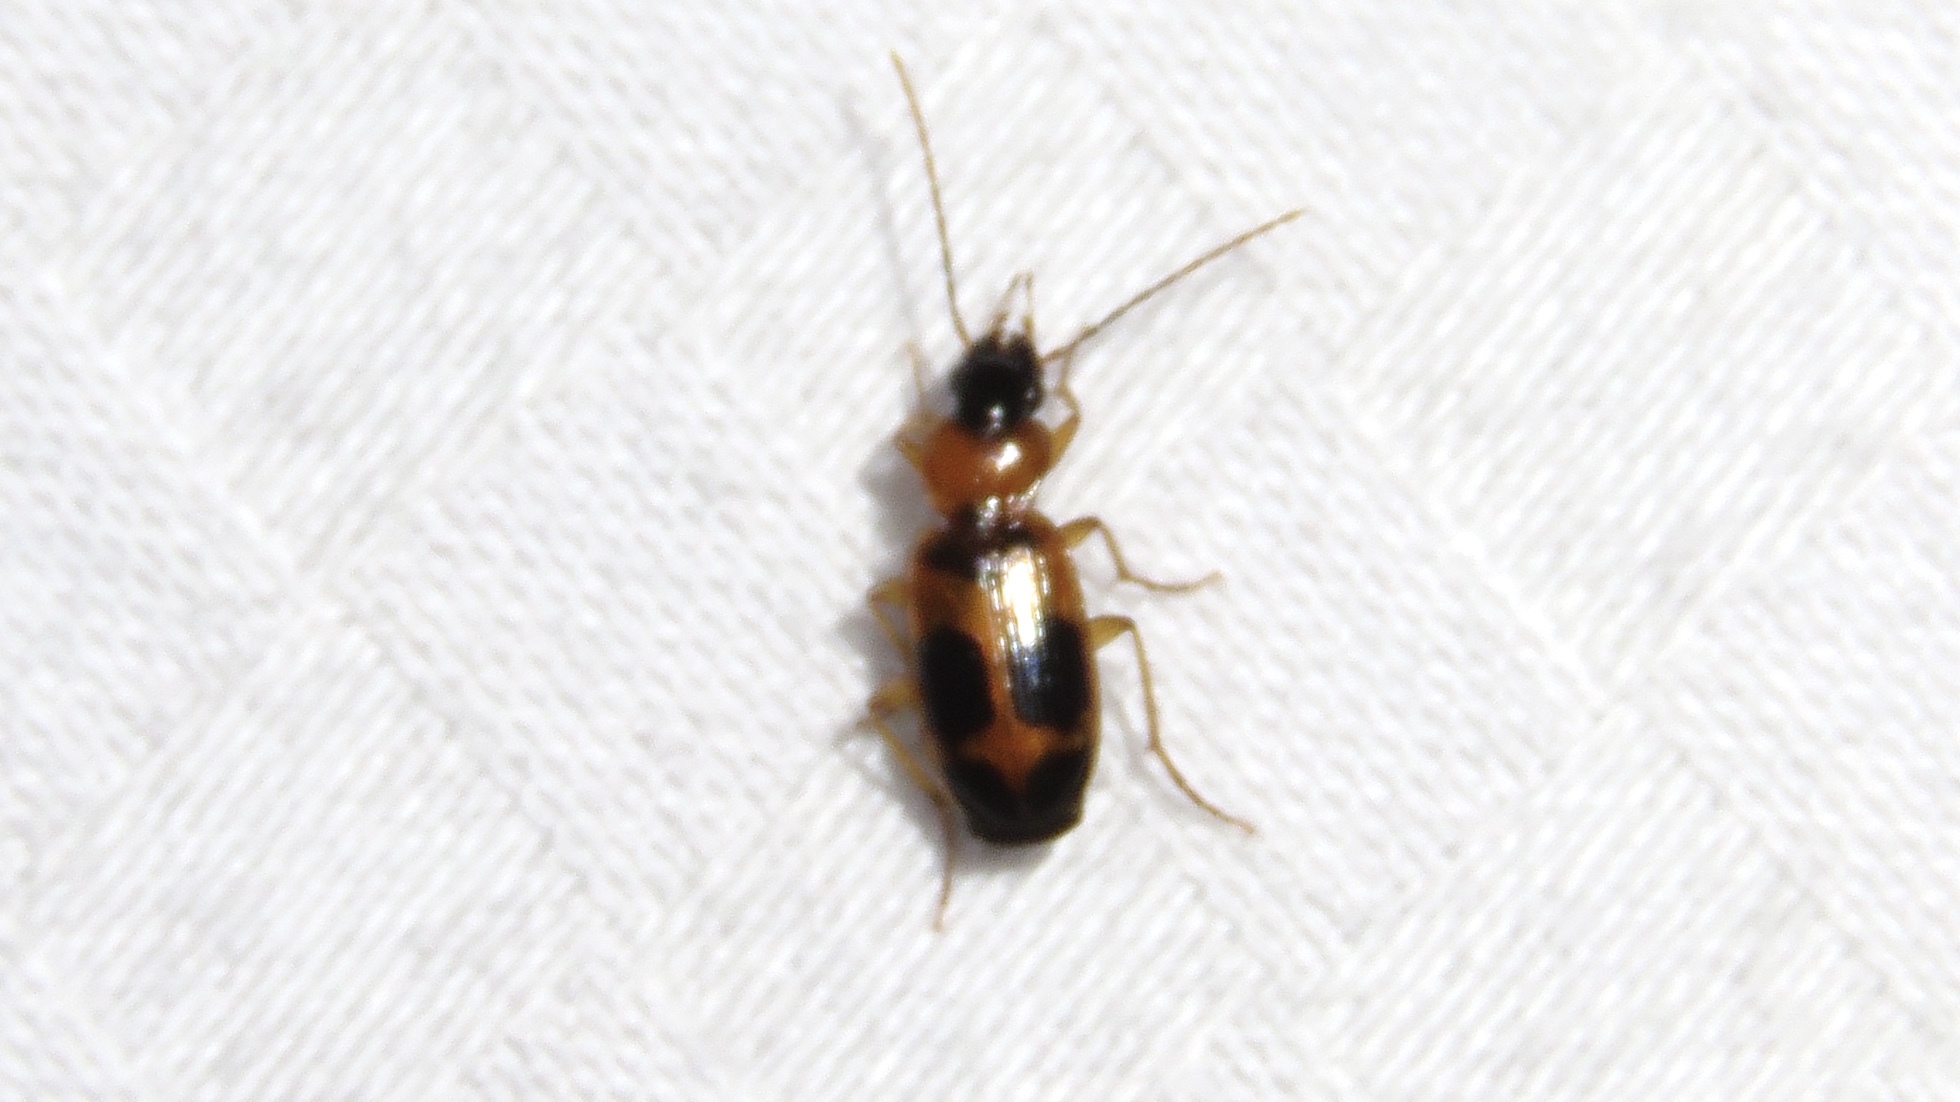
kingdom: Animalia
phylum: Arthropoda
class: Insecta
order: Coleoptera
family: Carabidae
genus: Badister
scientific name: Badister neopulchellus
